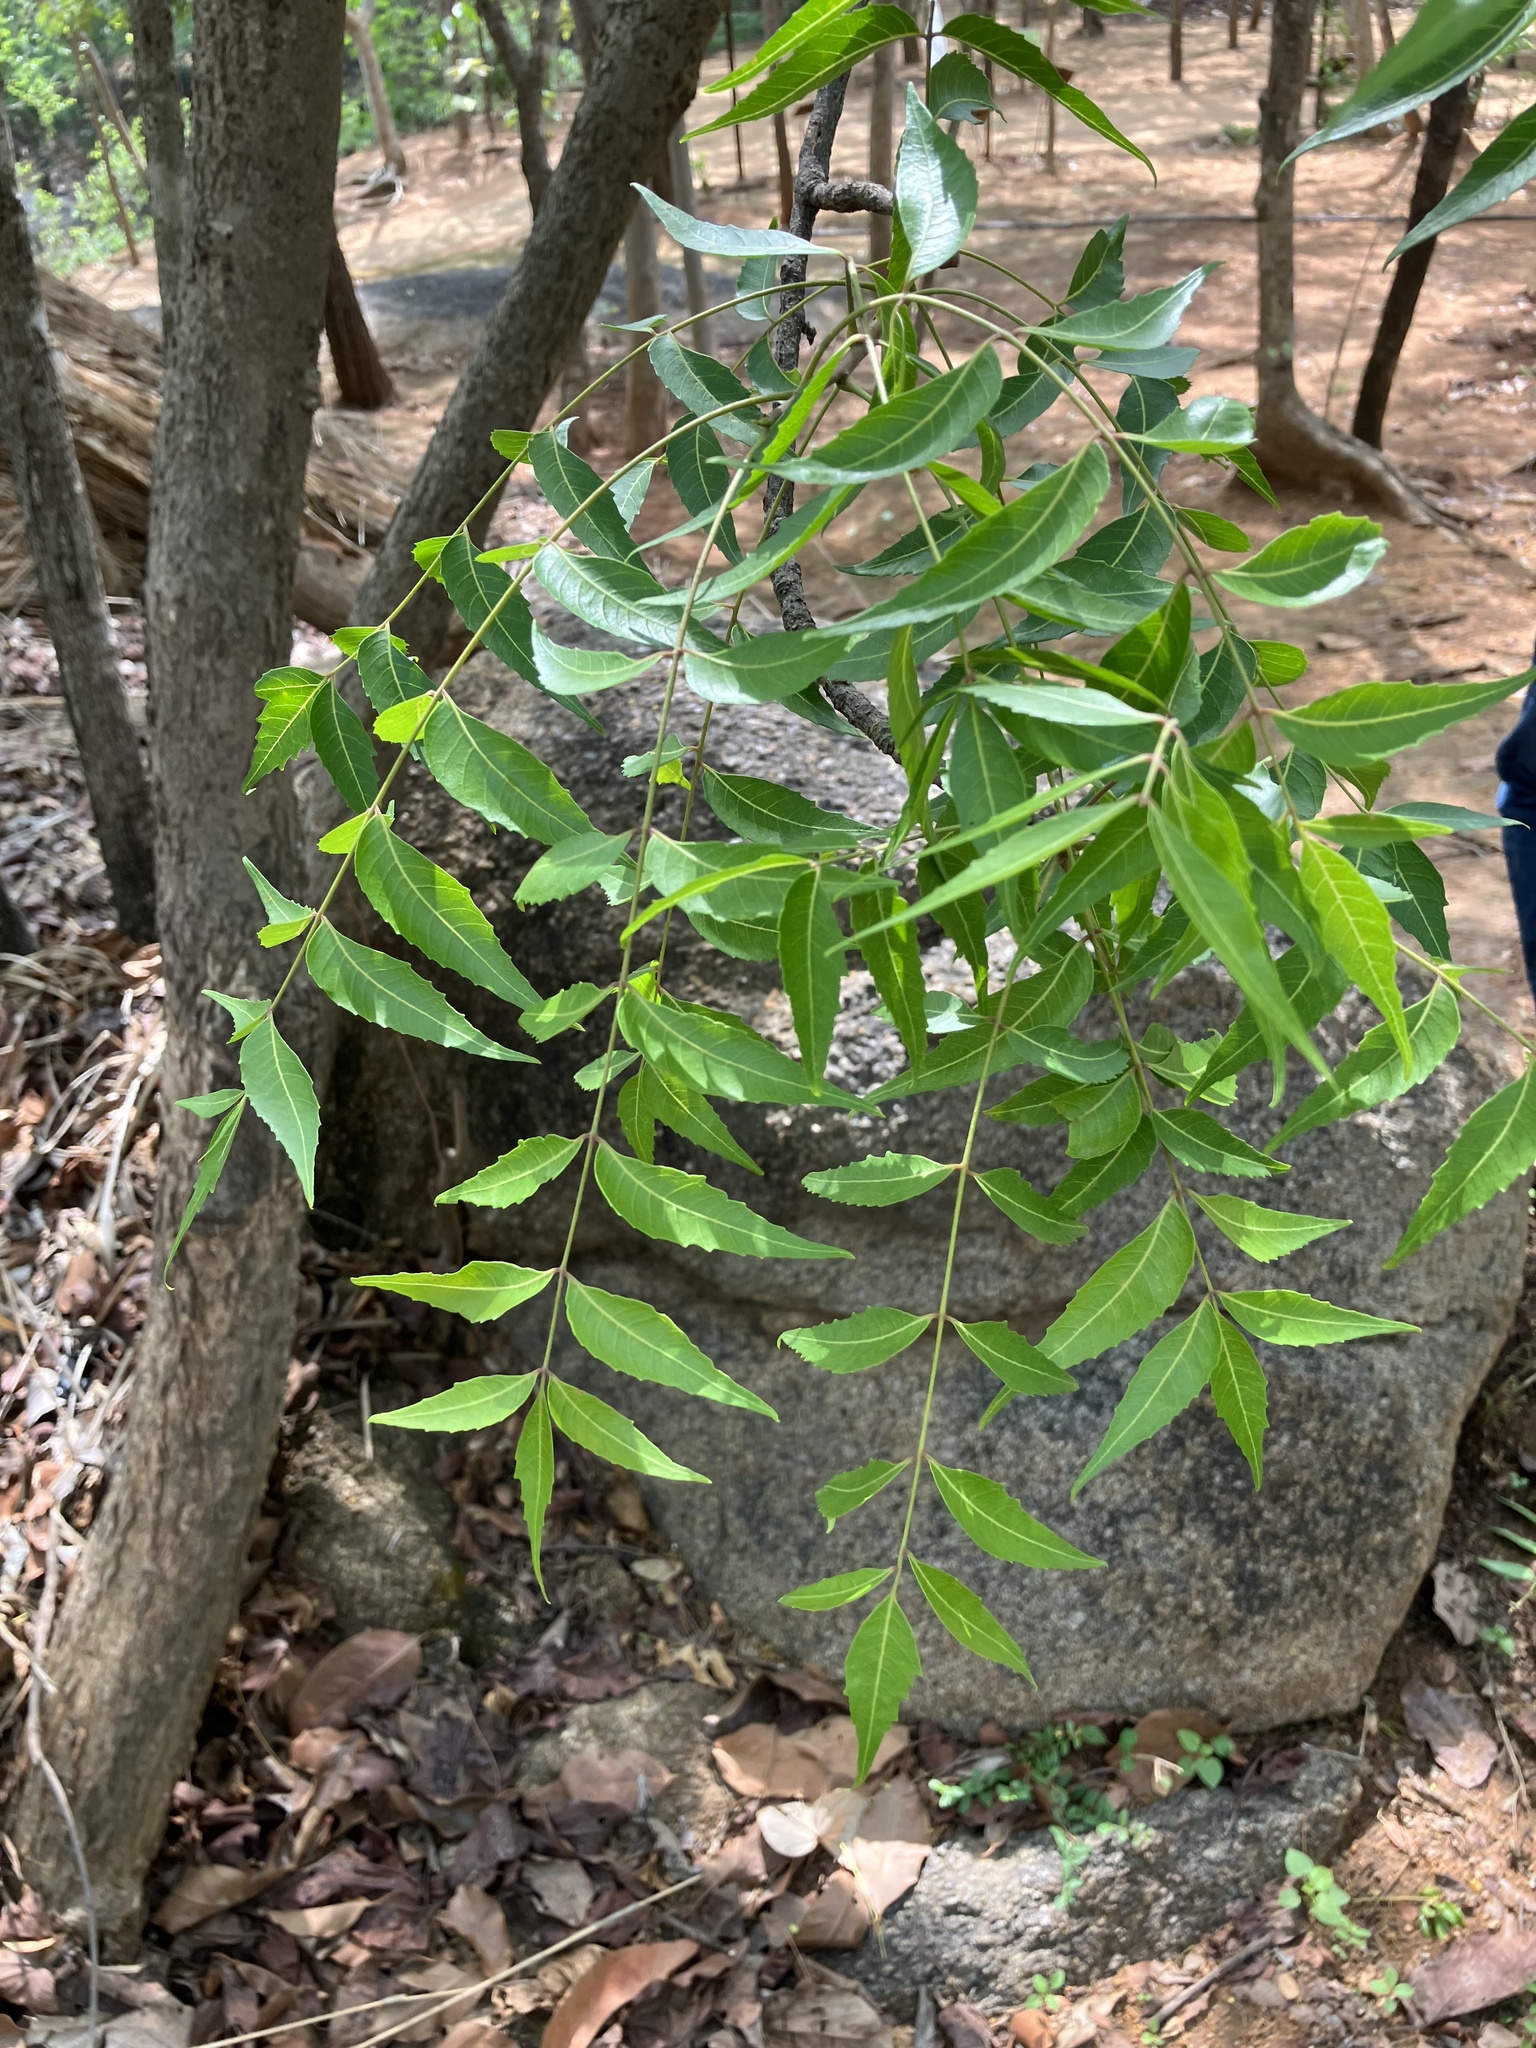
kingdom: Plantae
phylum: Tracheophyta
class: Magnoliopsida
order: Sapindales
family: Meliaceae
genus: Azadirachta
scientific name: Azadirachta indica
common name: Neem
